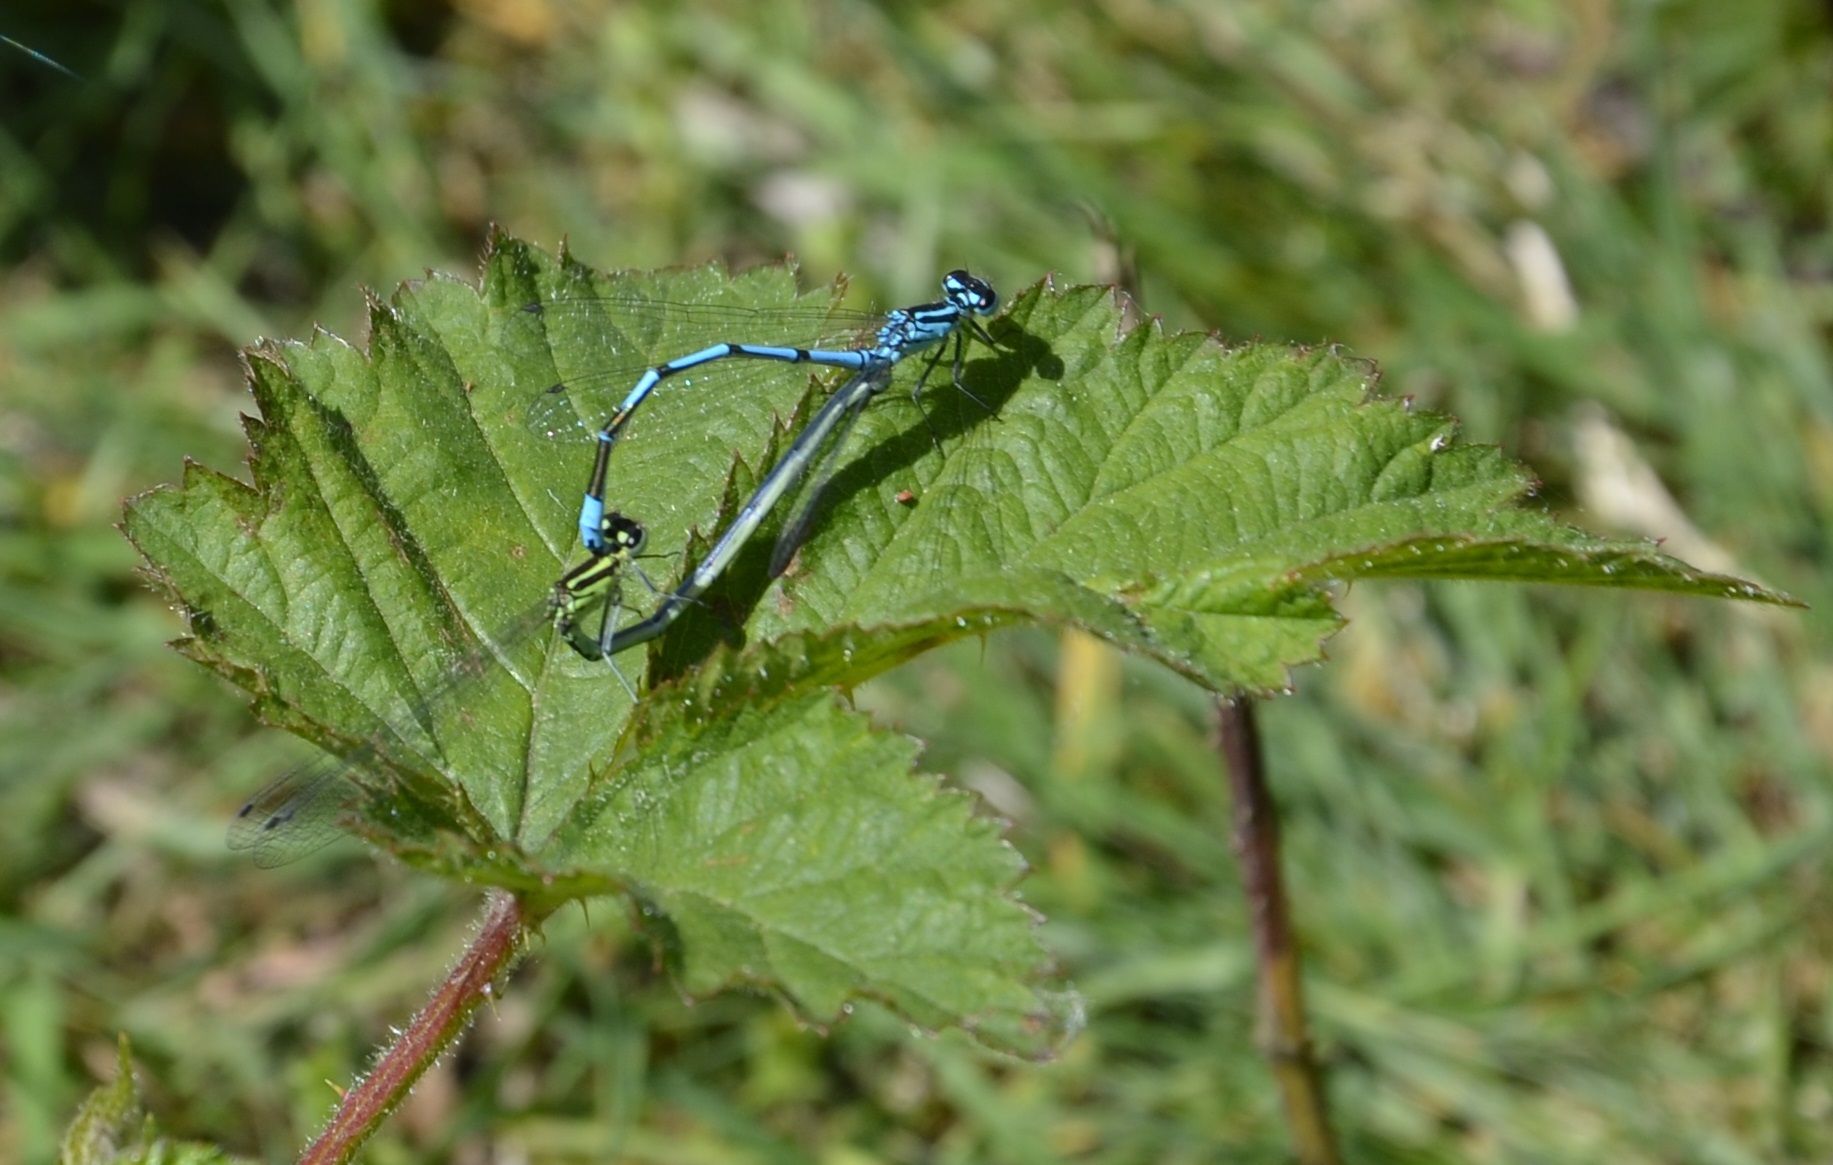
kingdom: Animalia
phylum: Arthropoda
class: Insecta
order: Odonata
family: Coenagrionidae
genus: Coenagrion
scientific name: Coenagrion puella
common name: Azure damselfly
